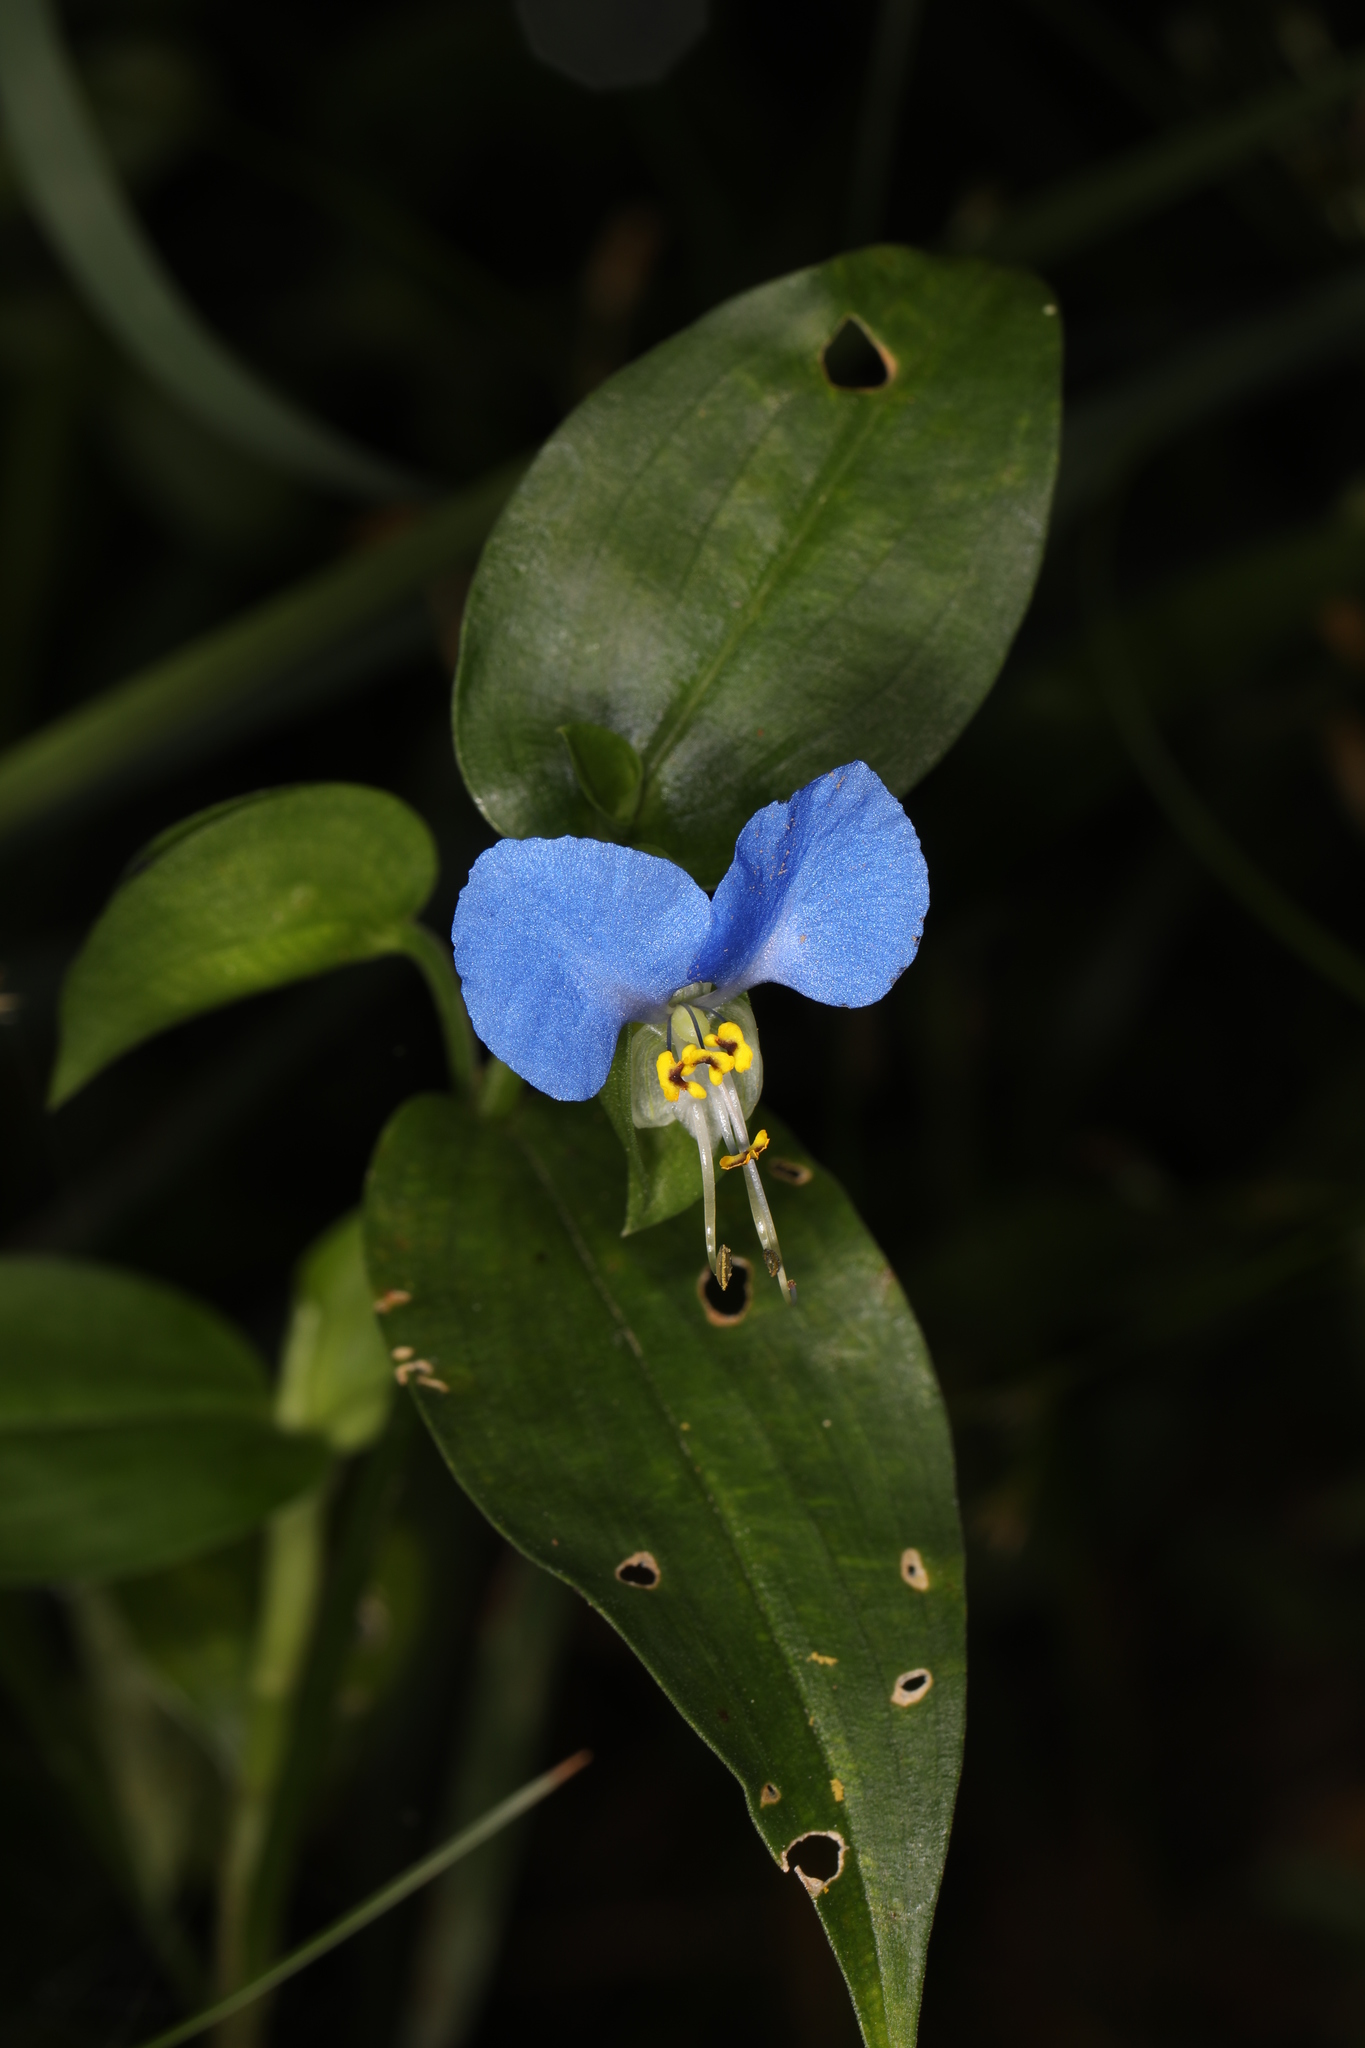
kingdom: Plantae
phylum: Tracheophyta
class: Liliopsida
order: Commelinales
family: Commelinaceae
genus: Commelina
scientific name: Commelina communis
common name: Asiatic dayflower
